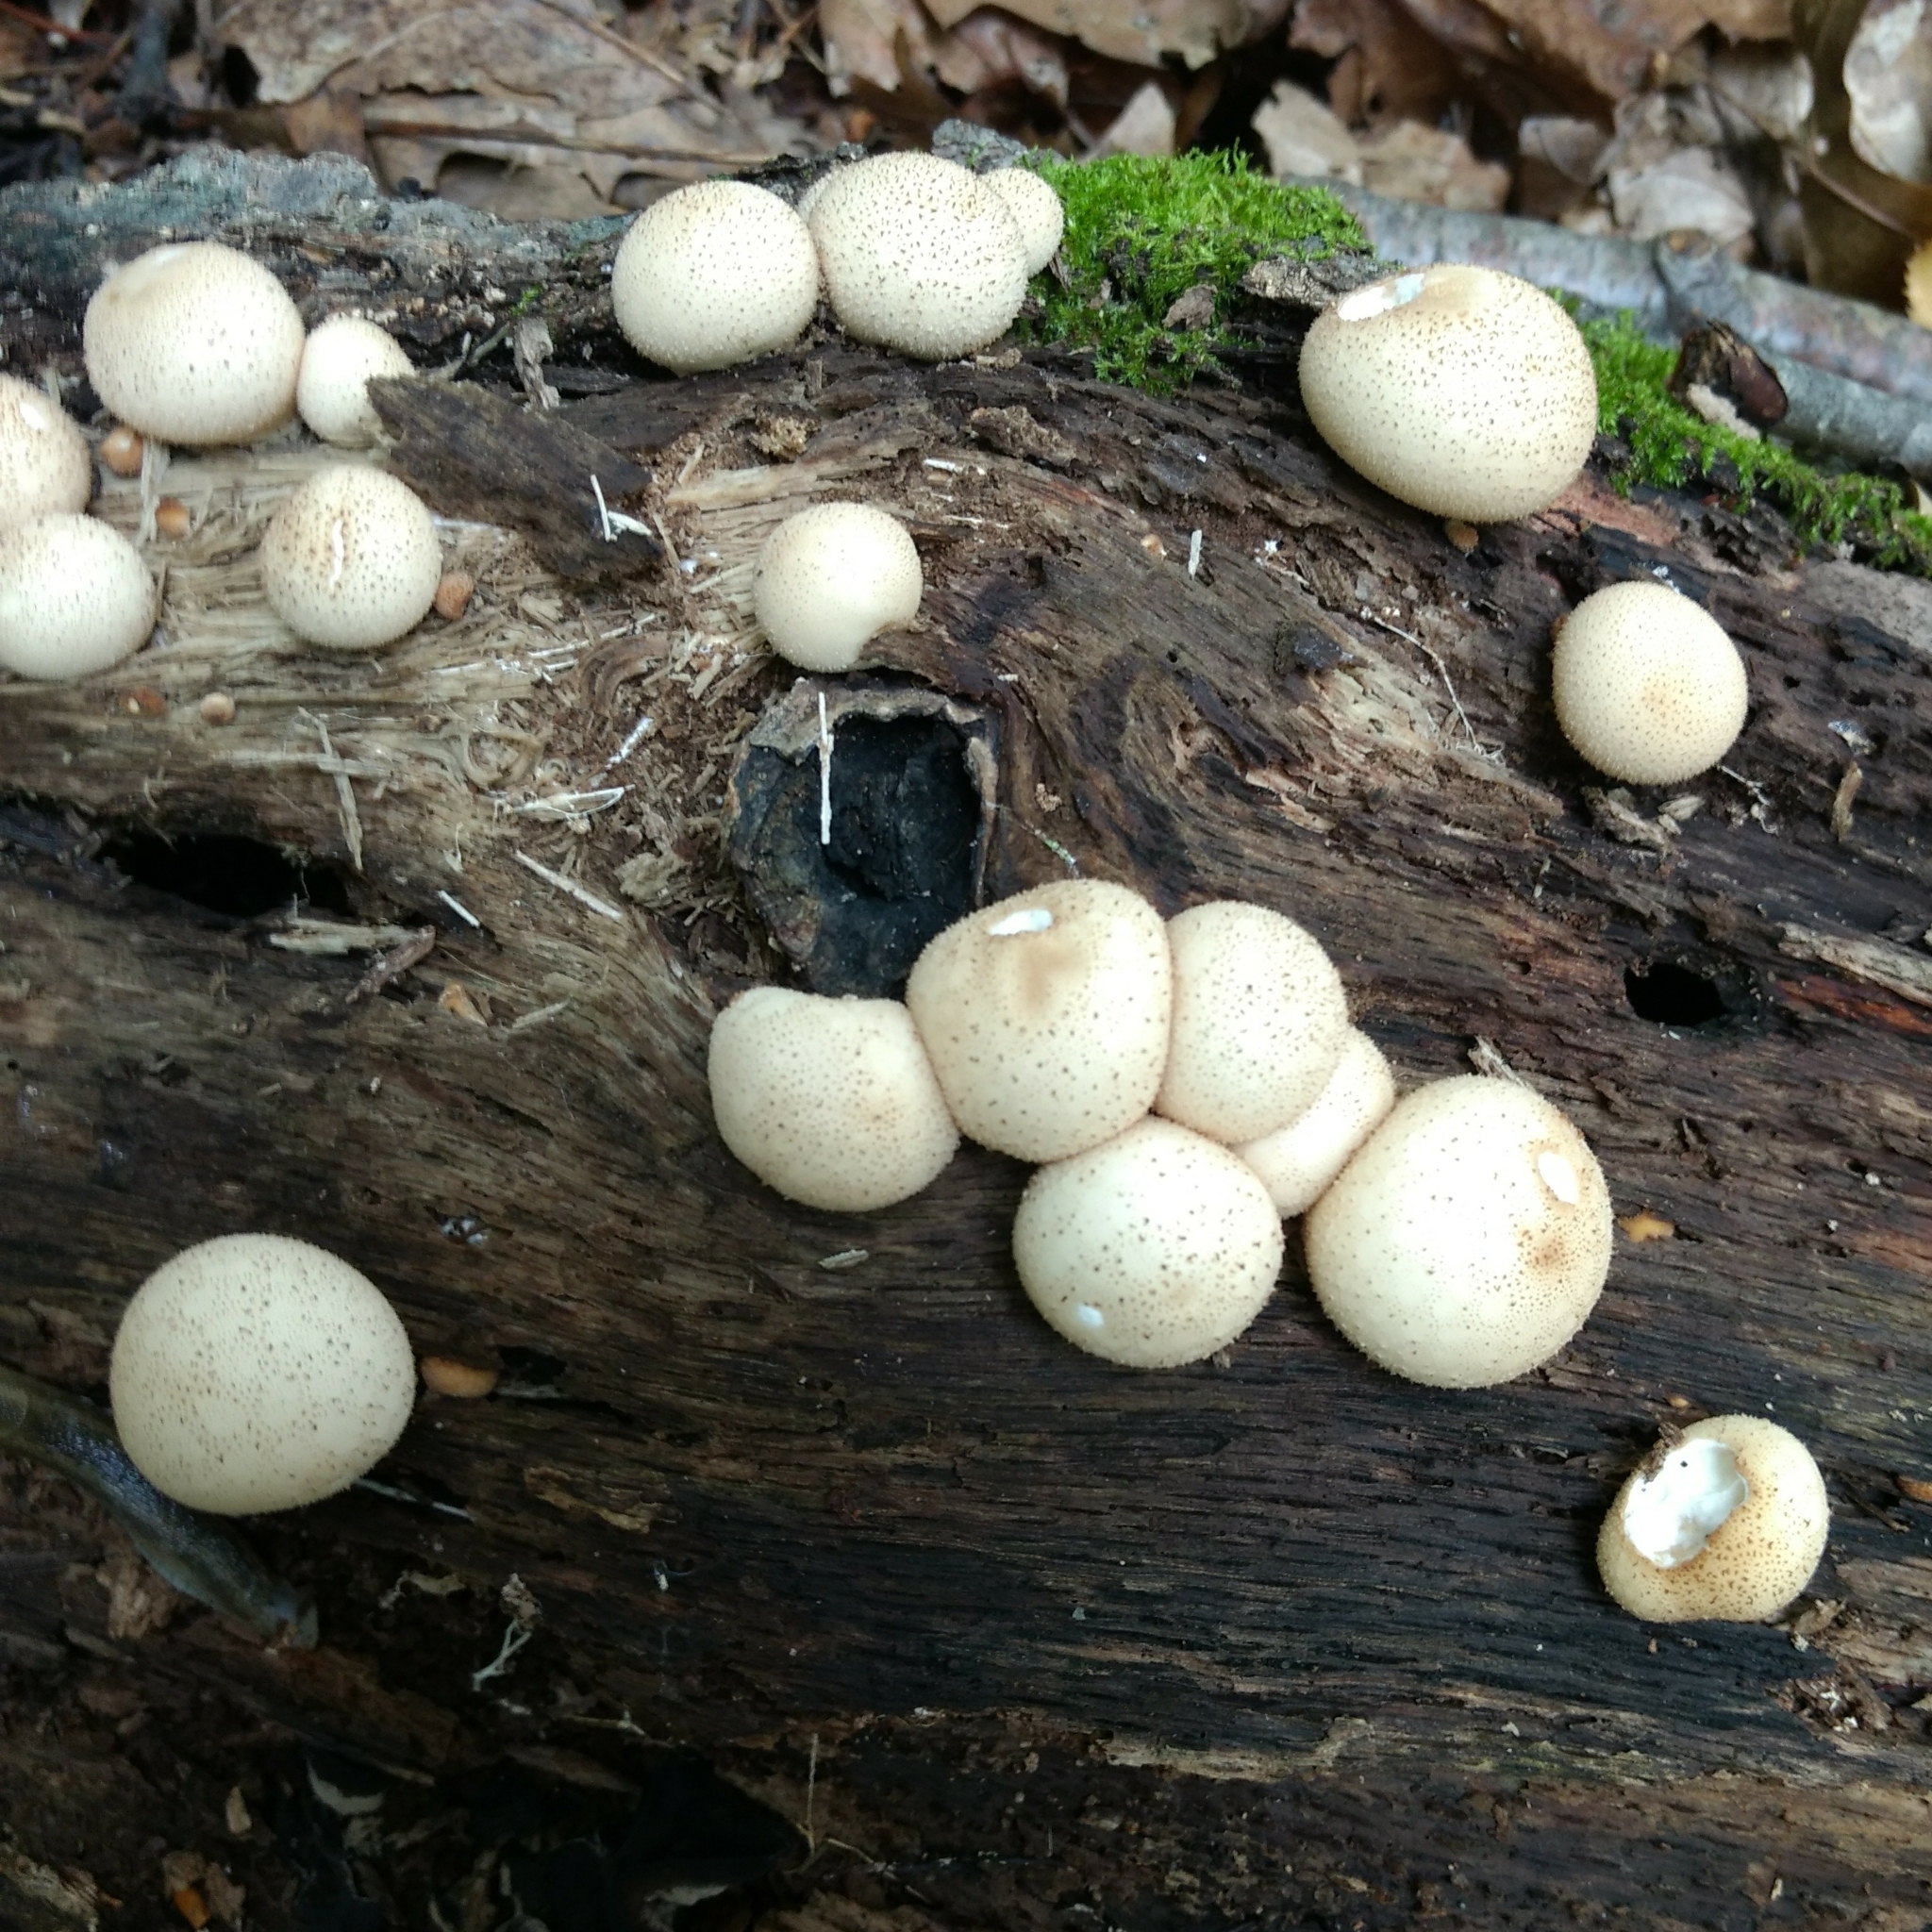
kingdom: Fungi
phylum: Basidiomycota
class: Agaricomycetes
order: Agaricales
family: Lycoperdaceae
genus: Apioperdon
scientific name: Apioperdon pyriforme
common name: Pear-shaped puffball
